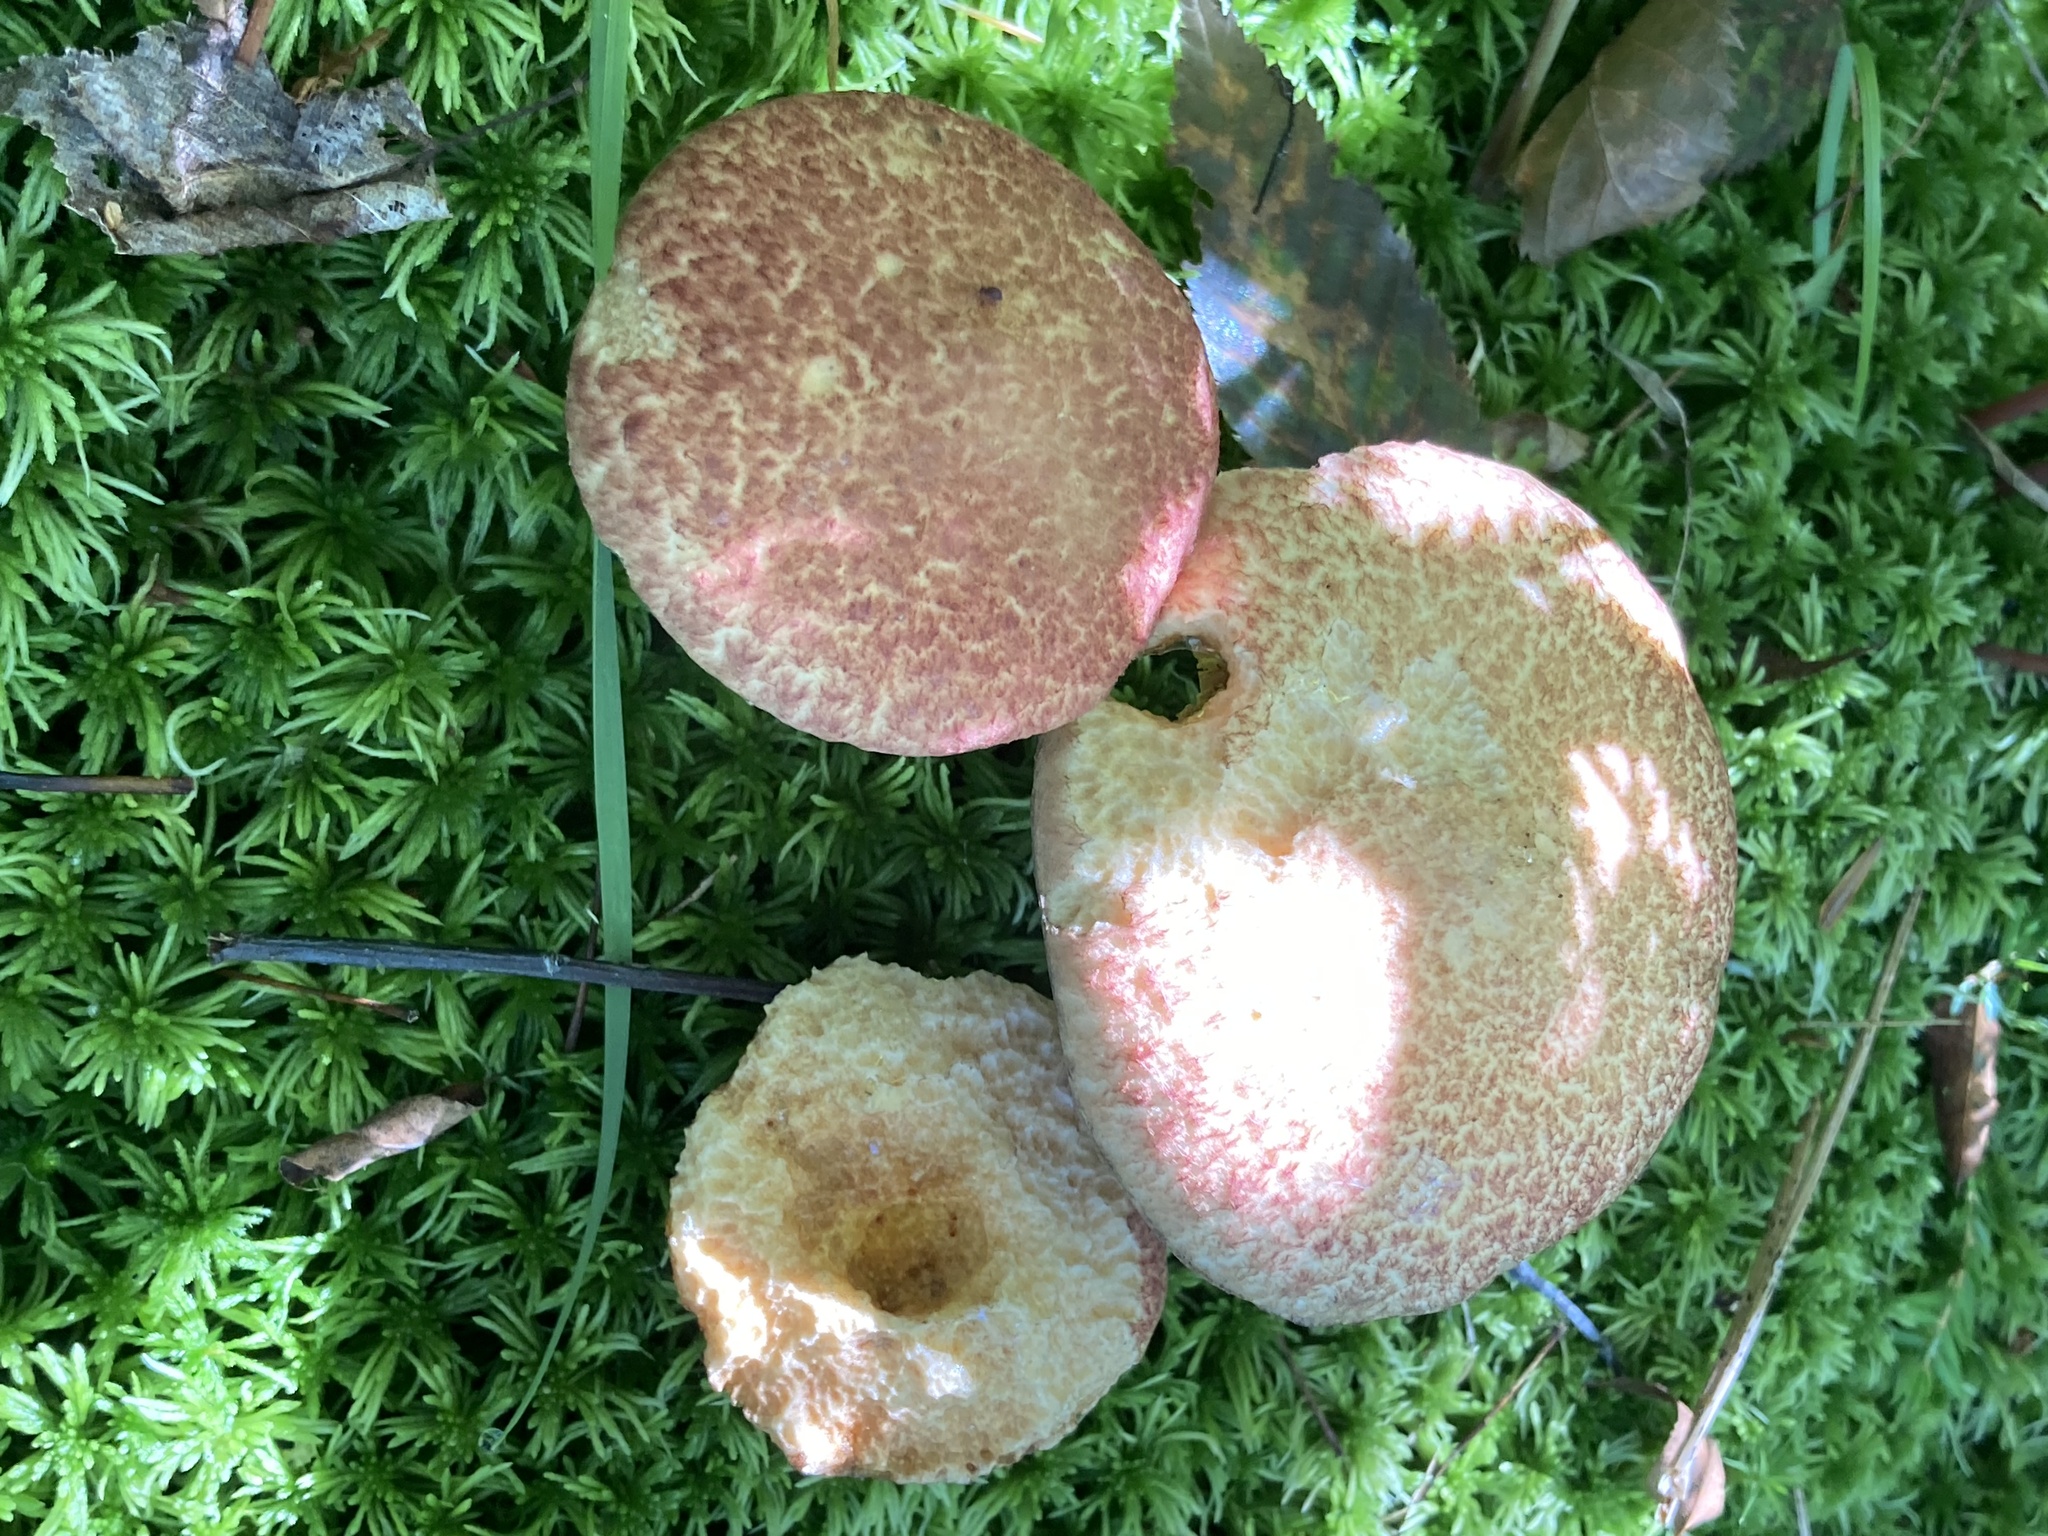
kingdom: Fungi
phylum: Basidiomycota
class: Agaricomycetes
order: Boletales
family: Suillaceae
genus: Suillus
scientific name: Suillus spraguei
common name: Painted suillus
